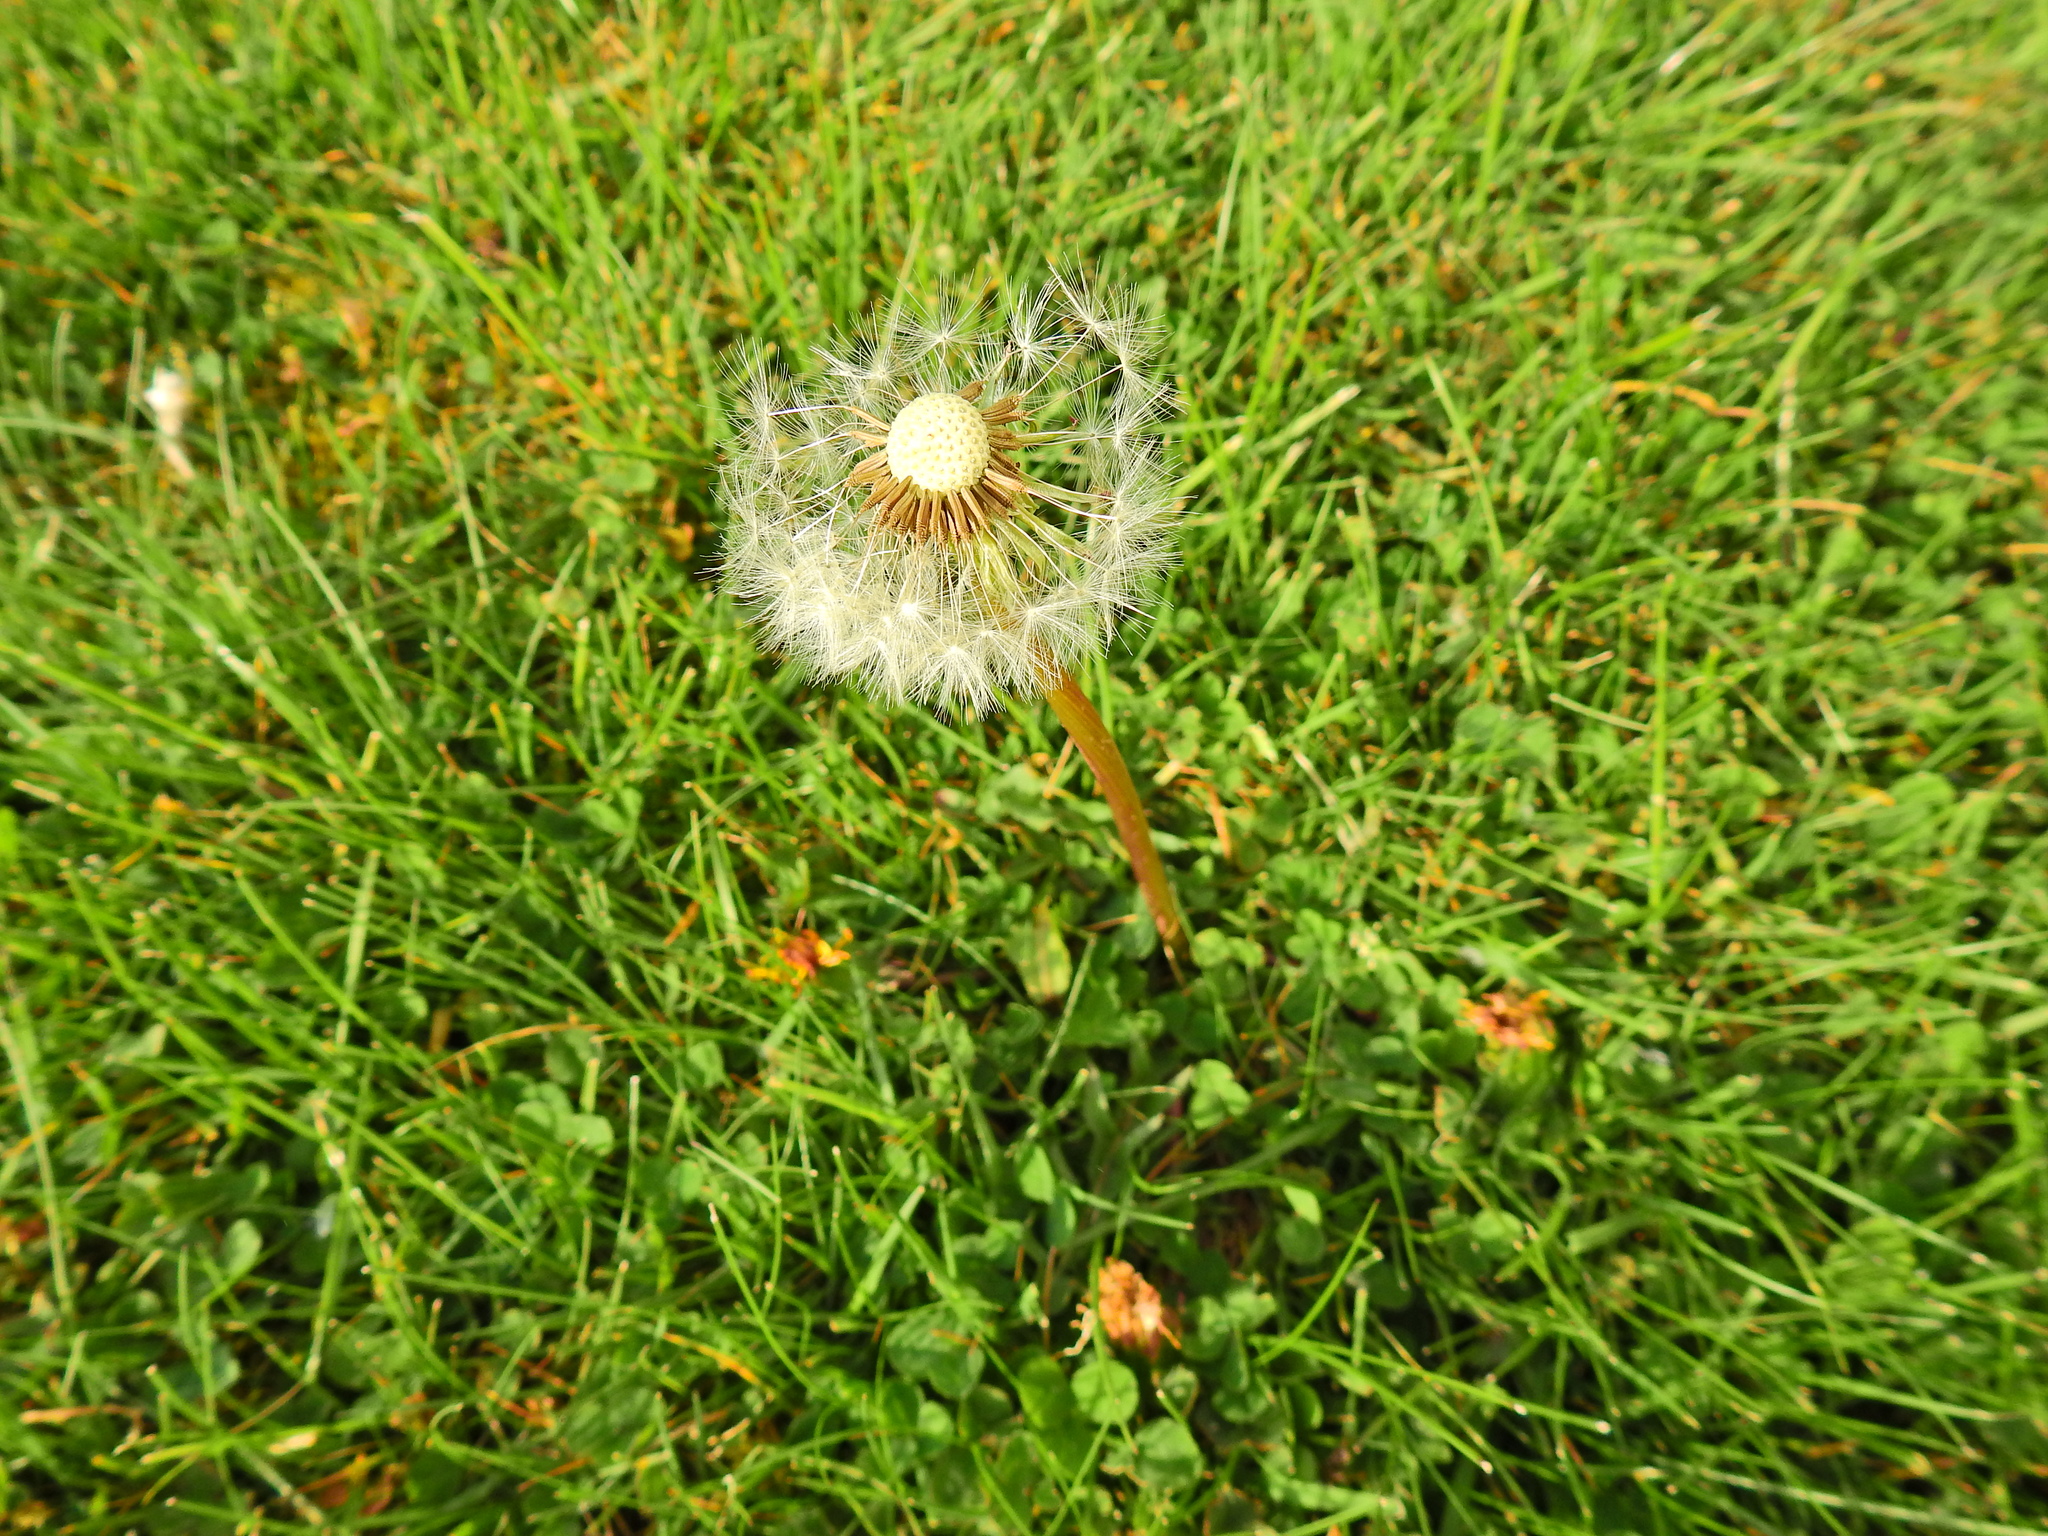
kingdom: Plantae
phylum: Tracheophyta
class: Magnoliopsida
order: Asterales
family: Asteraceae
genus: Taraxacum
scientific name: Taraxacum officinale
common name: Common dandelion
